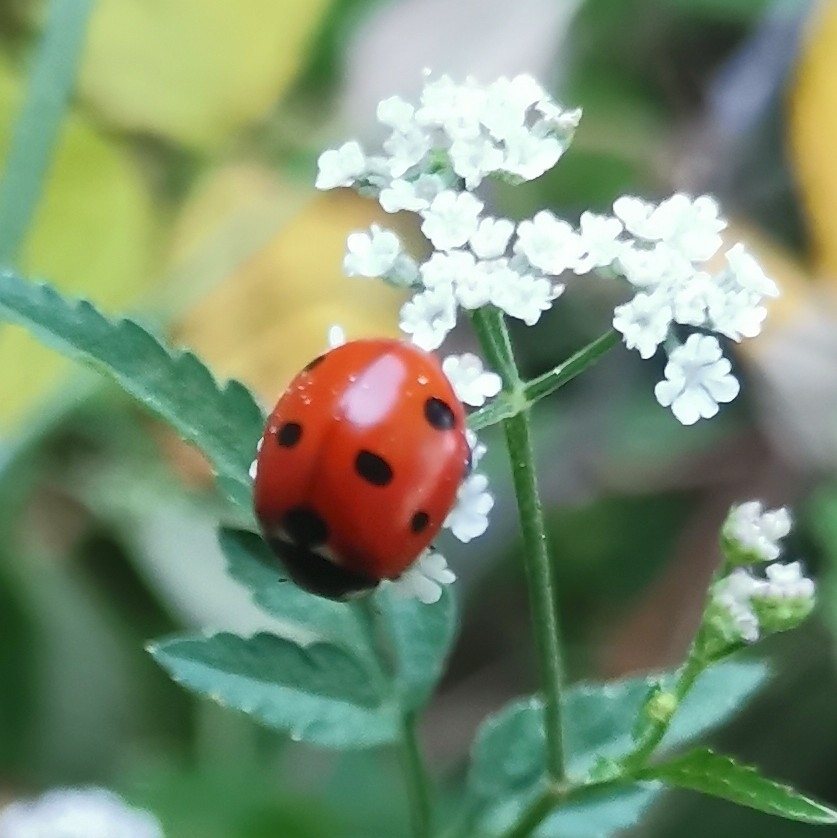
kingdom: Animalia
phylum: Arthropoda
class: Insecta
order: Coleoptera
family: Coccinellidae
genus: Coccinella
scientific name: Coccinella septempunctata
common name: Sevenspotted lady beetle
